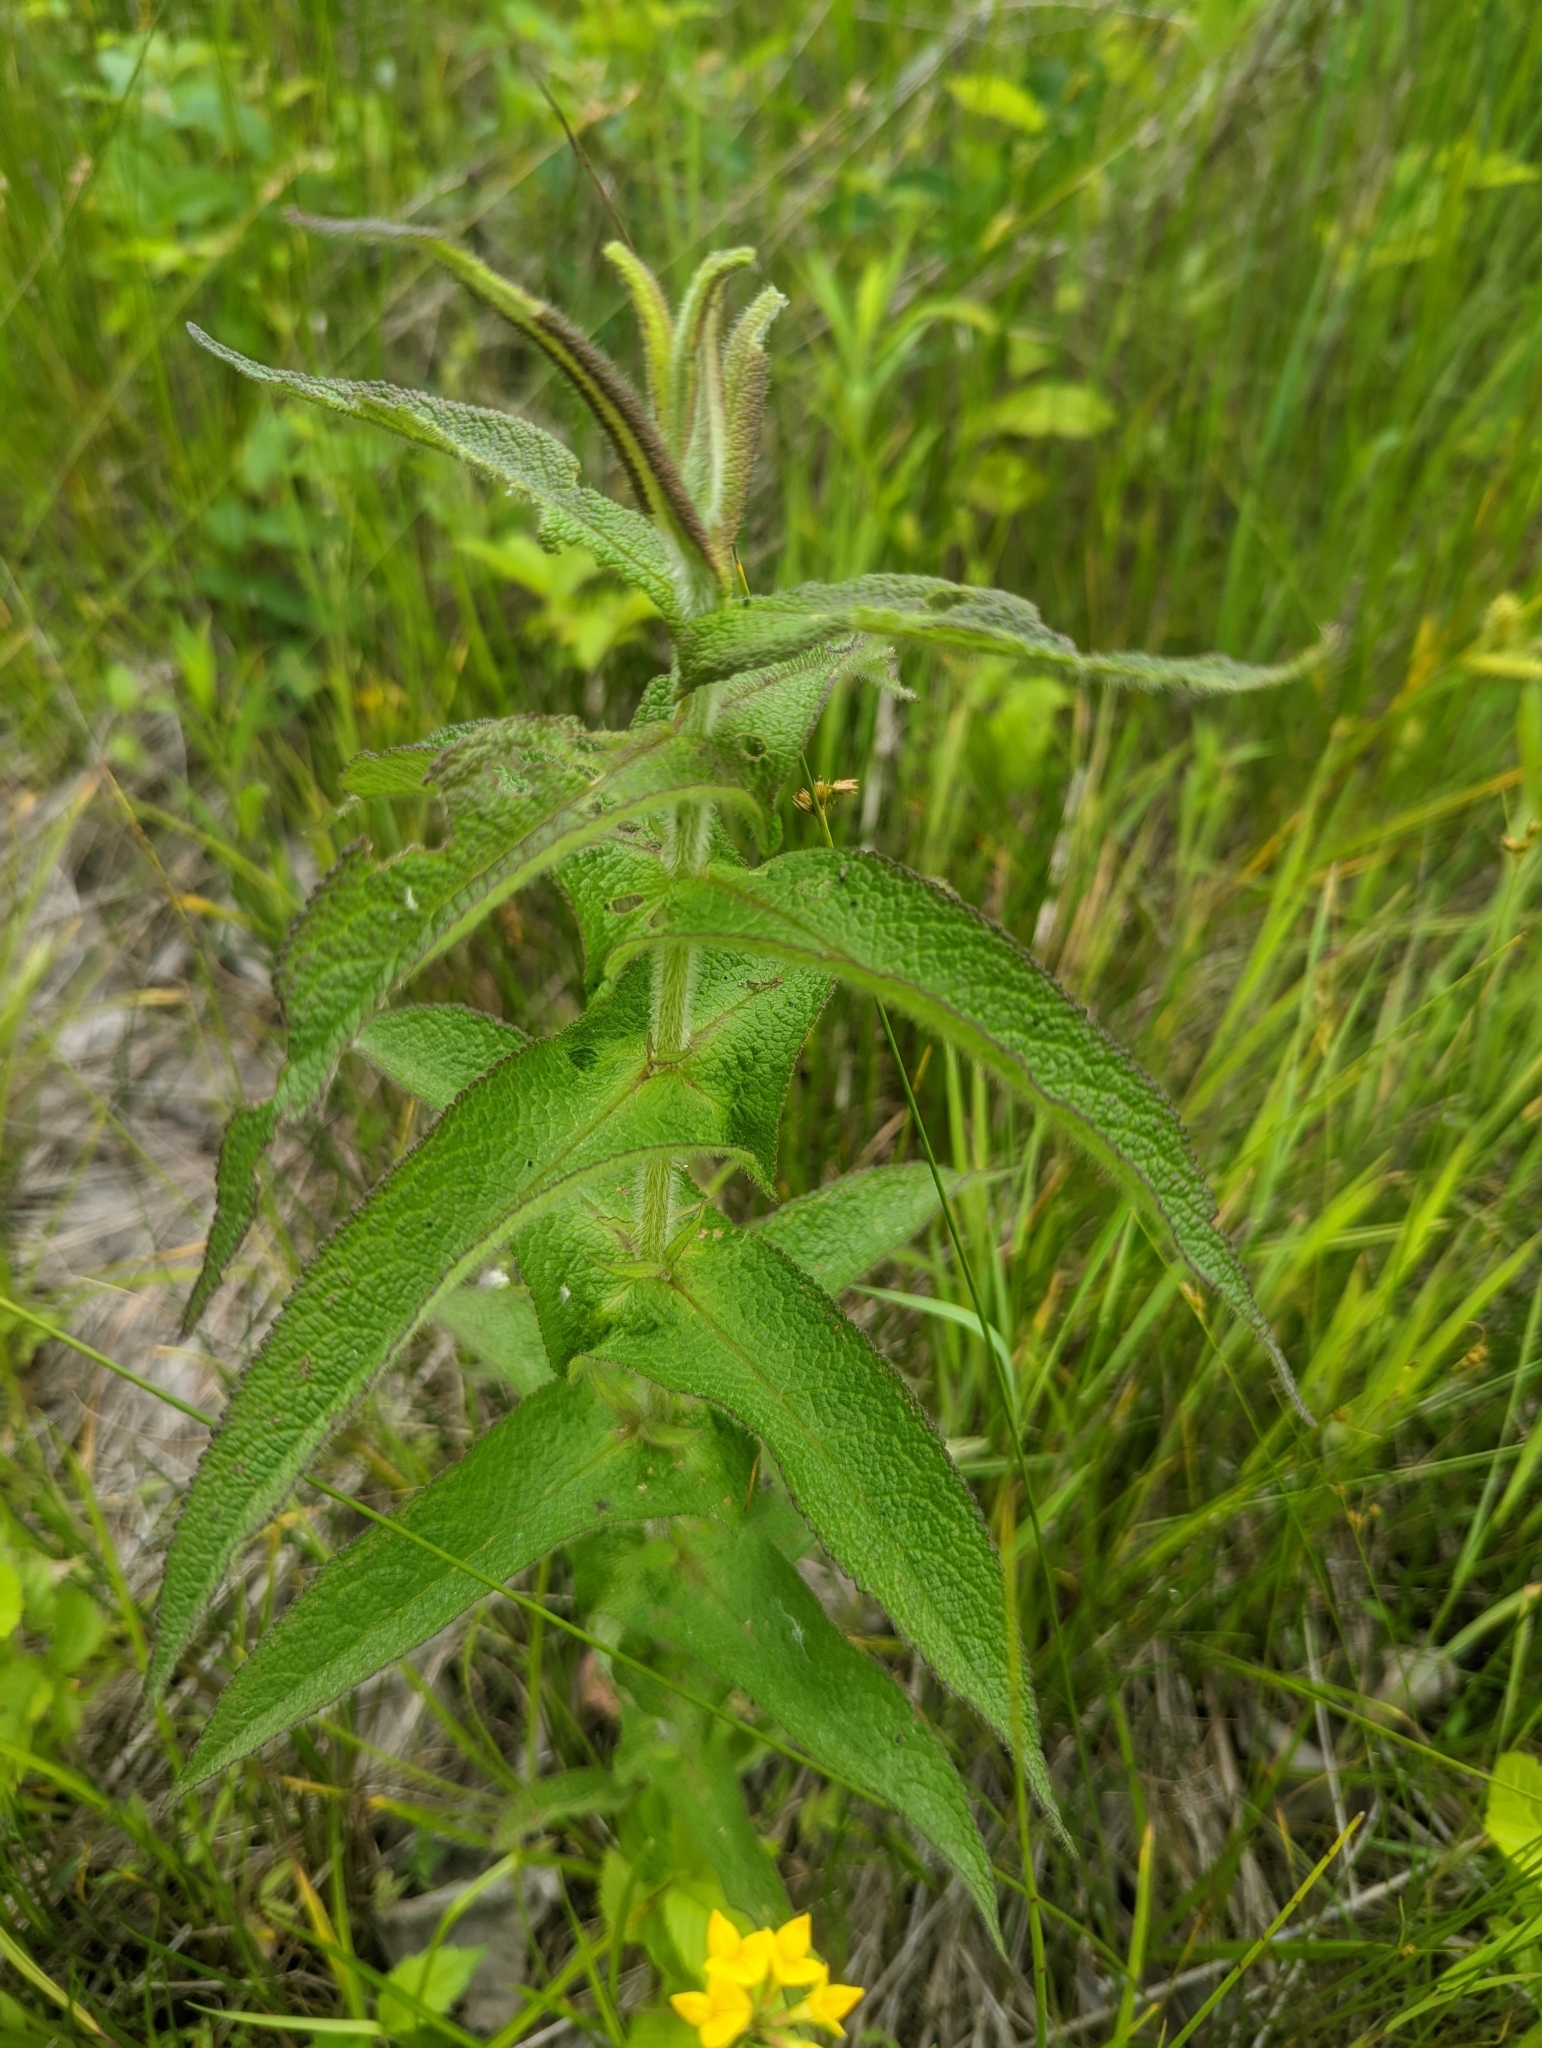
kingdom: Plantae
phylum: Tracheophyta
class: Magnoliopsida
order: Asterales
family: Asteraceae
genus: Eupatorium
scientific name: Eupatorium perfoliatum
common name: Boneset
